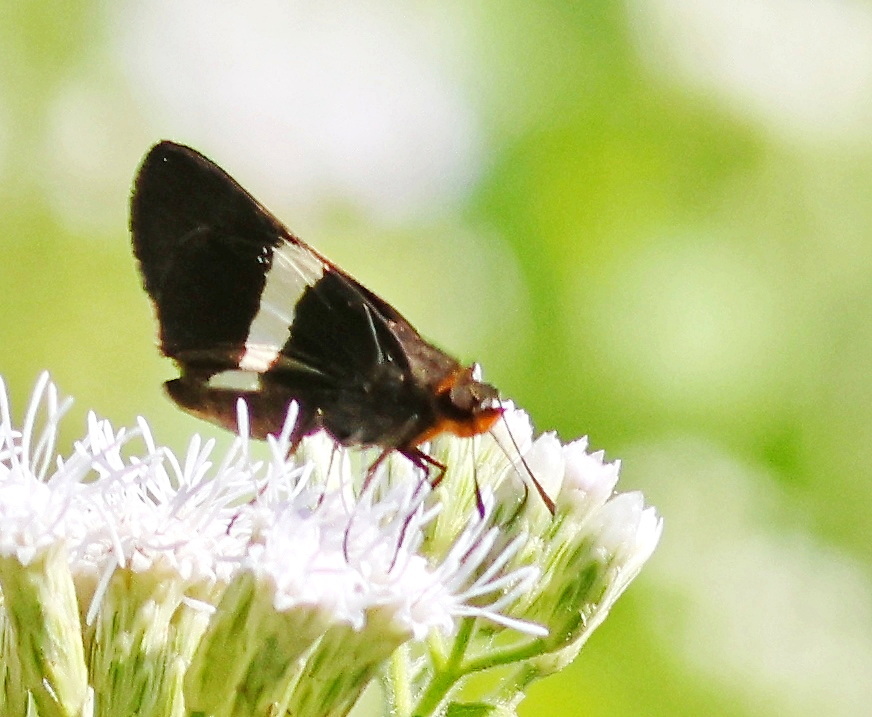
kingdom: Animalia
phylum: Arthropoda
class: Insecta
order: Lepidoptera
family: Hesperiidae
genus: Metron
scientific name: Metron chrysogastra
